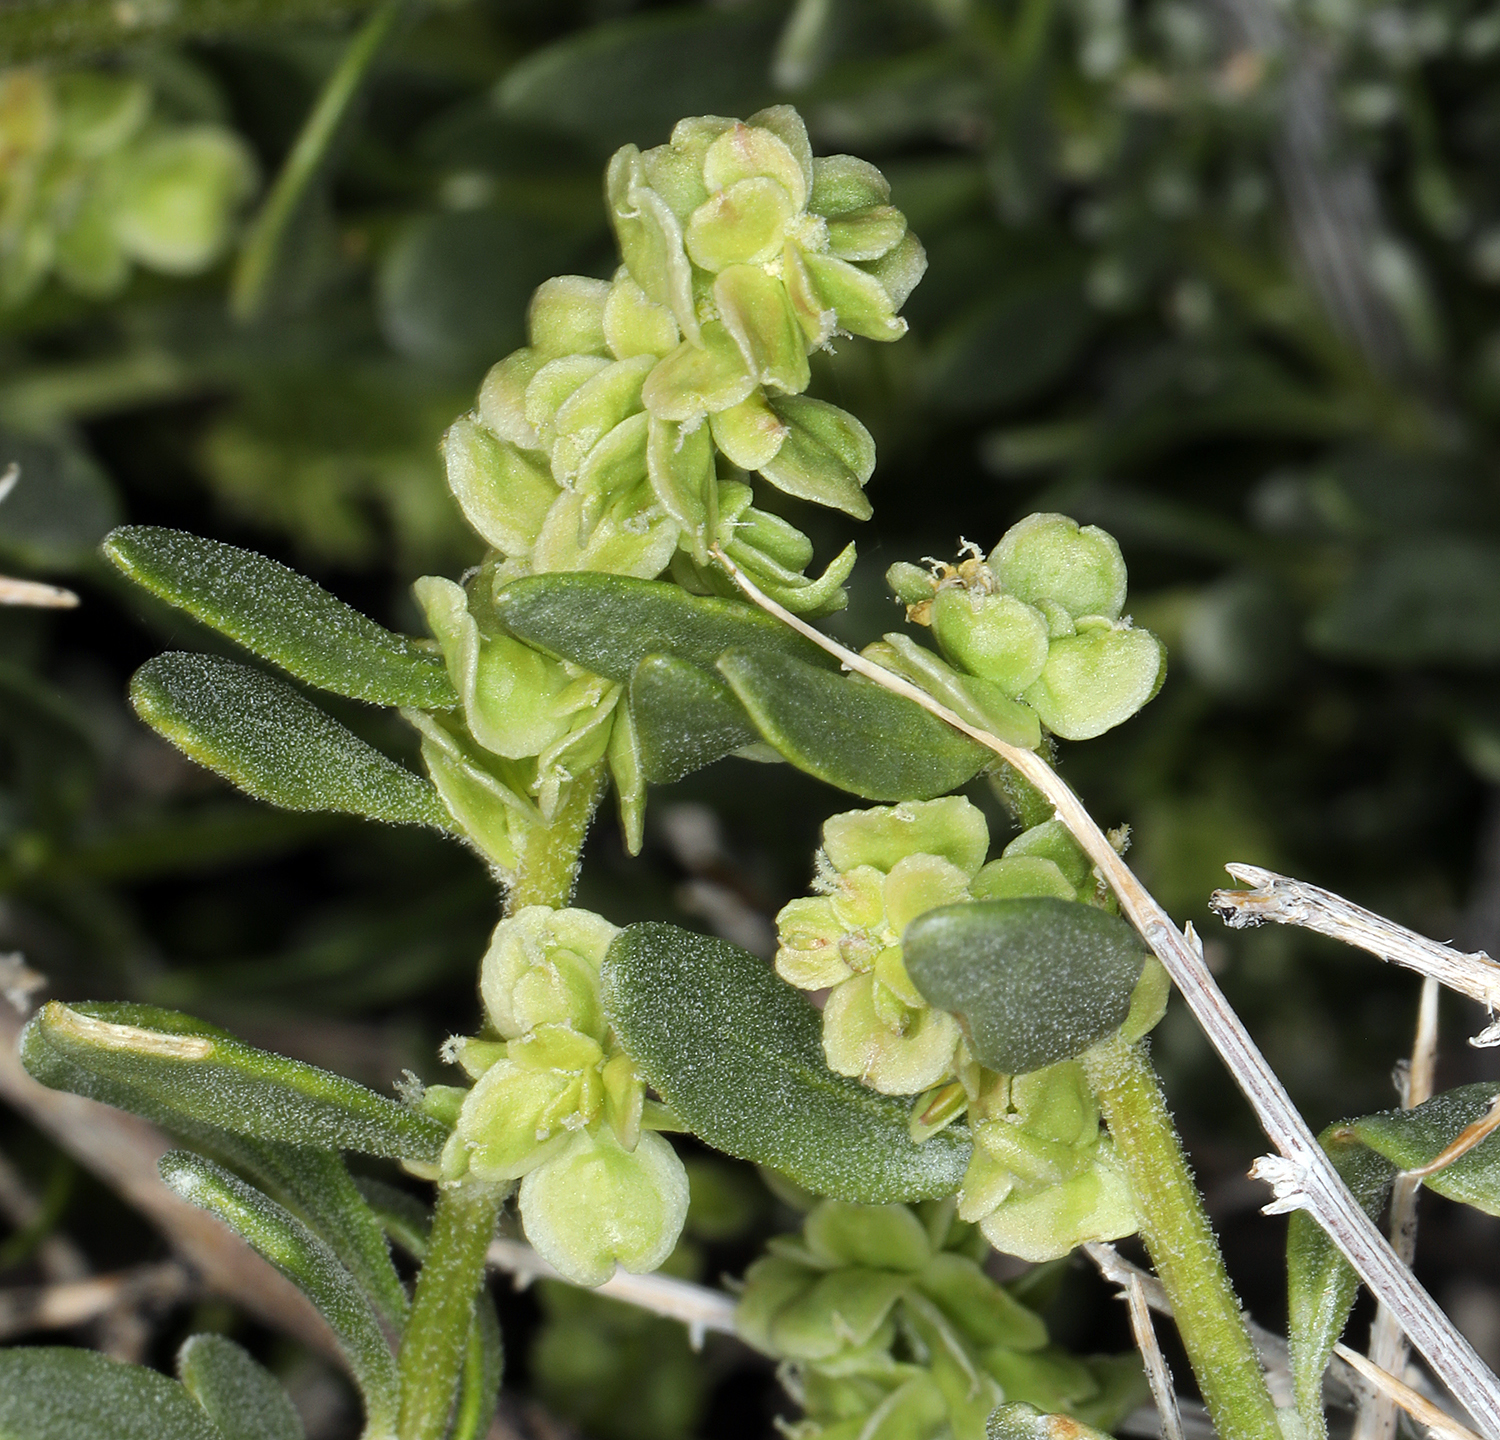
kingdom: Plantae
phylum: Tracheophyta
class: Magnoliopsida
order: Caryophyllales
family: Amaranthaceae
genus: Grayia
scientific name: Grayia spinosa
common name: Spiny hopsage
